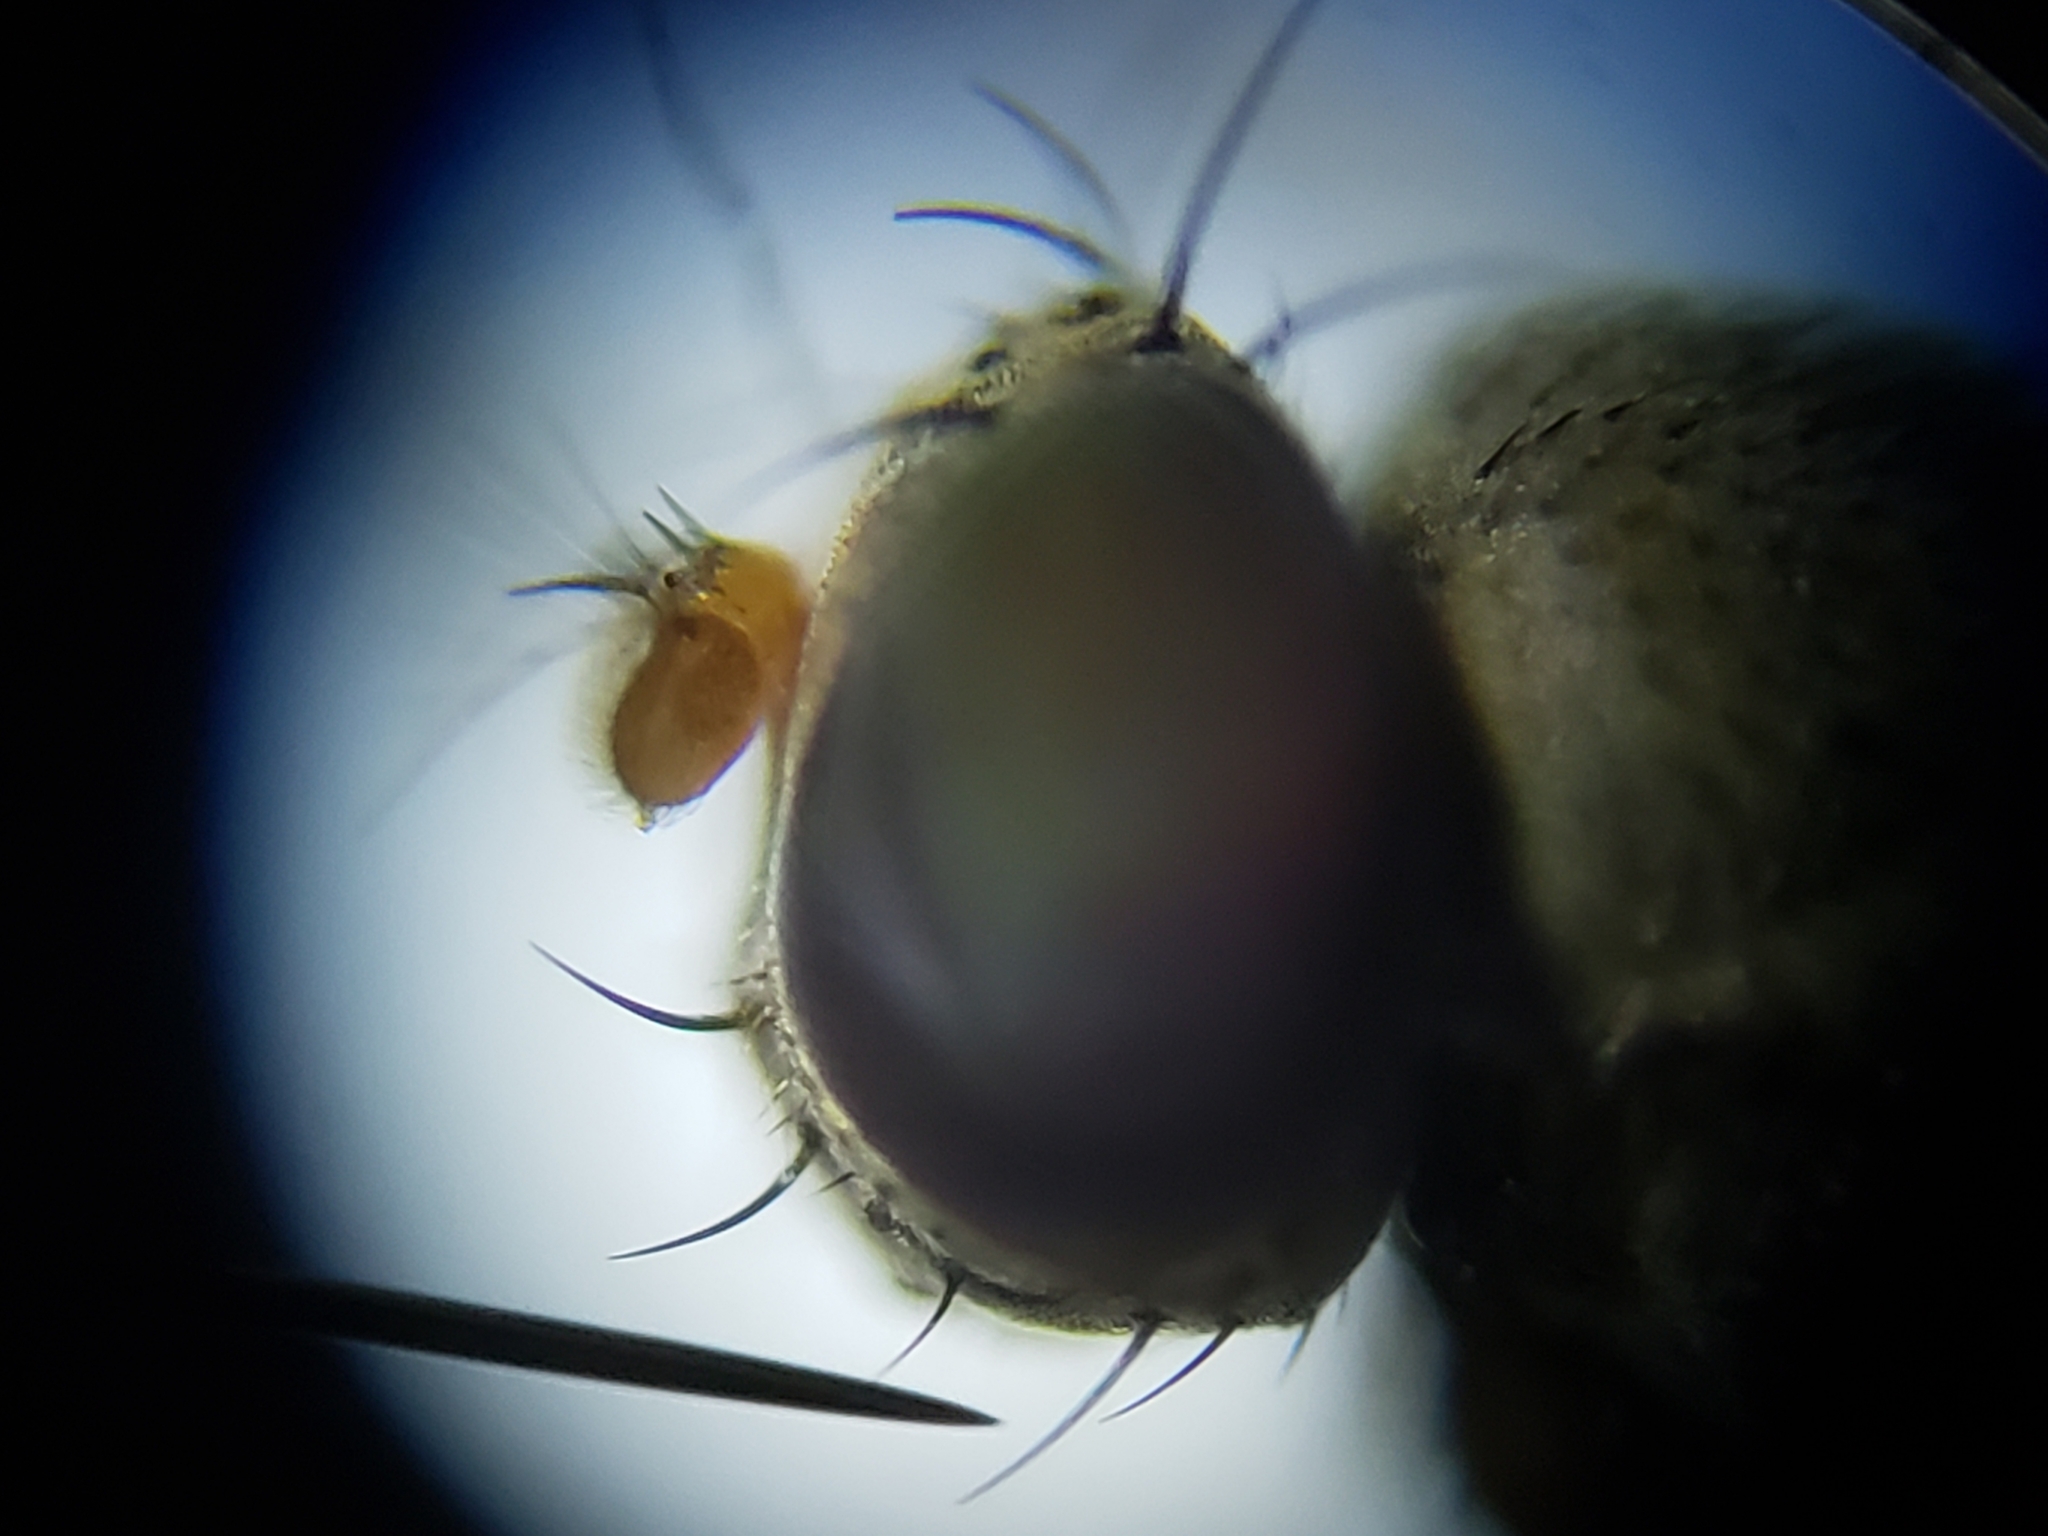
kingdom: Animalia
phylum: Arthropoda
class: Insecta
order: Diptera
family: Ephydridae
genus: Discocerina
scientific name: Discocerina obscurella
